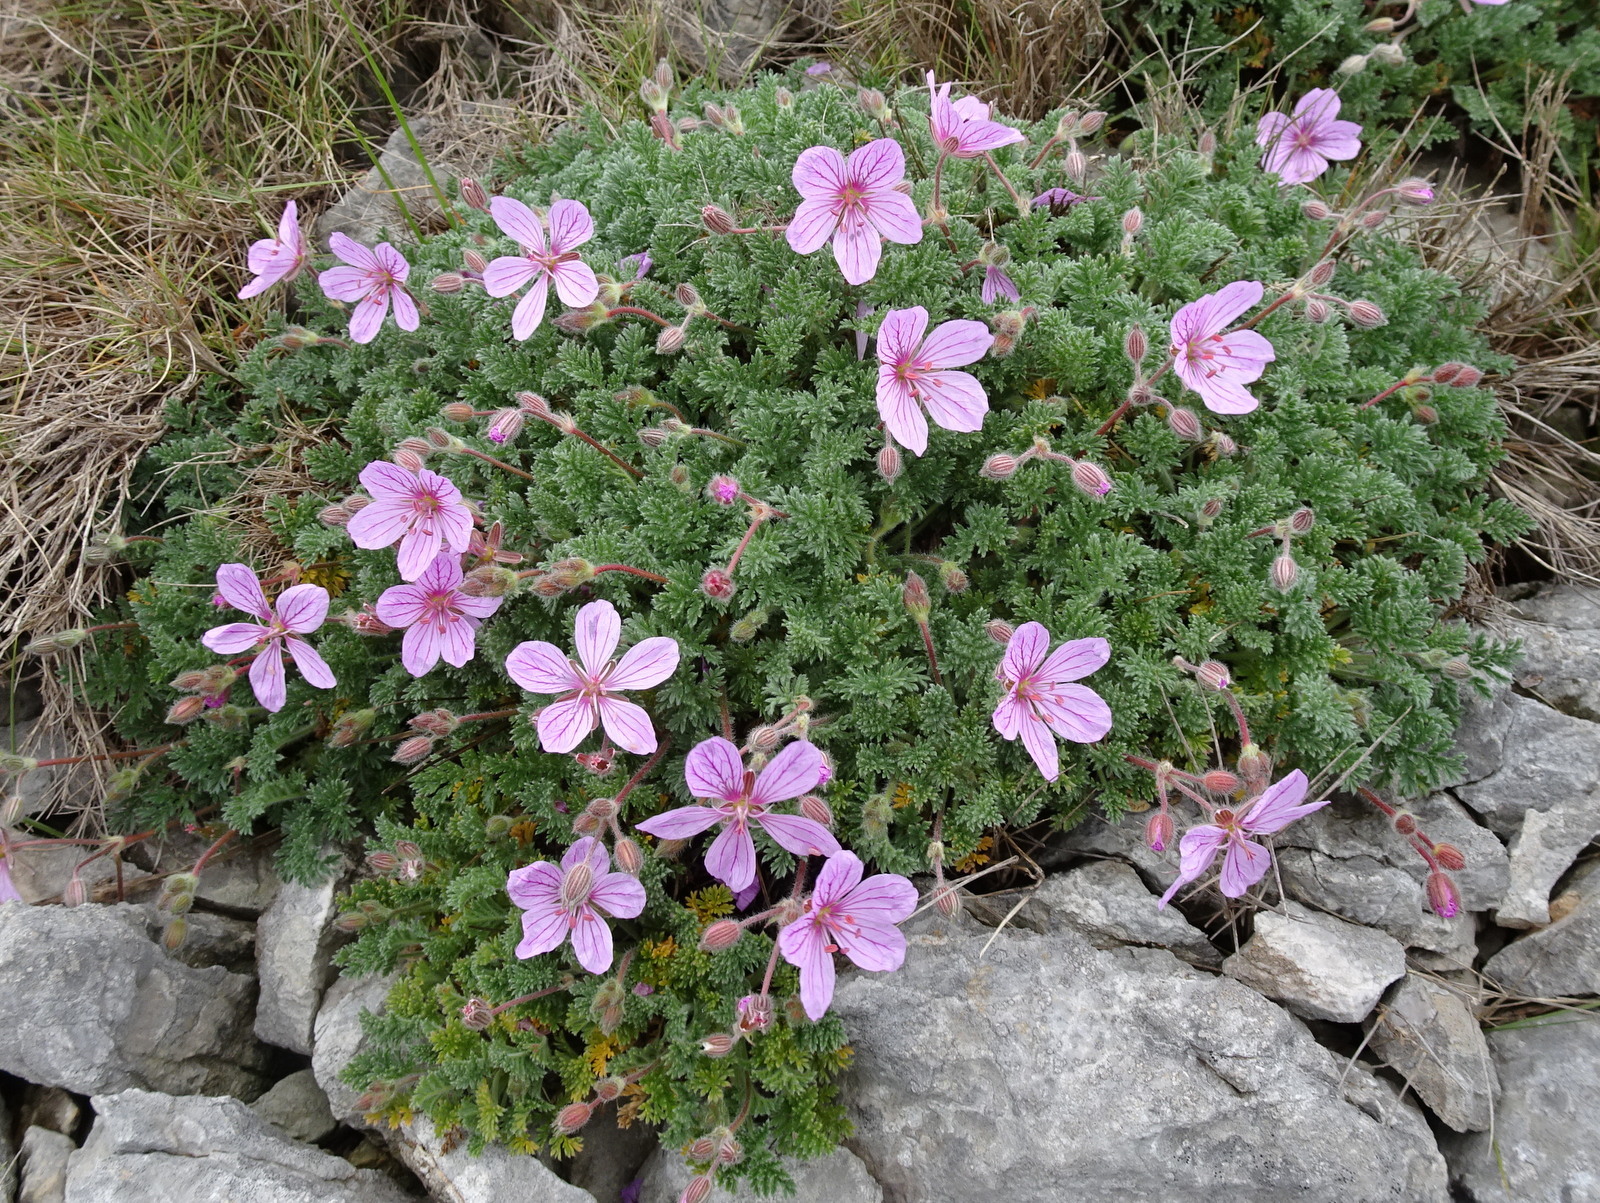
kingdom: Plantae
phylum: Tracheophyta
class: Magnoliopsida
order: Geraniales
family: Geraniaceae
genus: Erodium
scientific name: Erodium foetidum
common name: Rock stork's-bill
